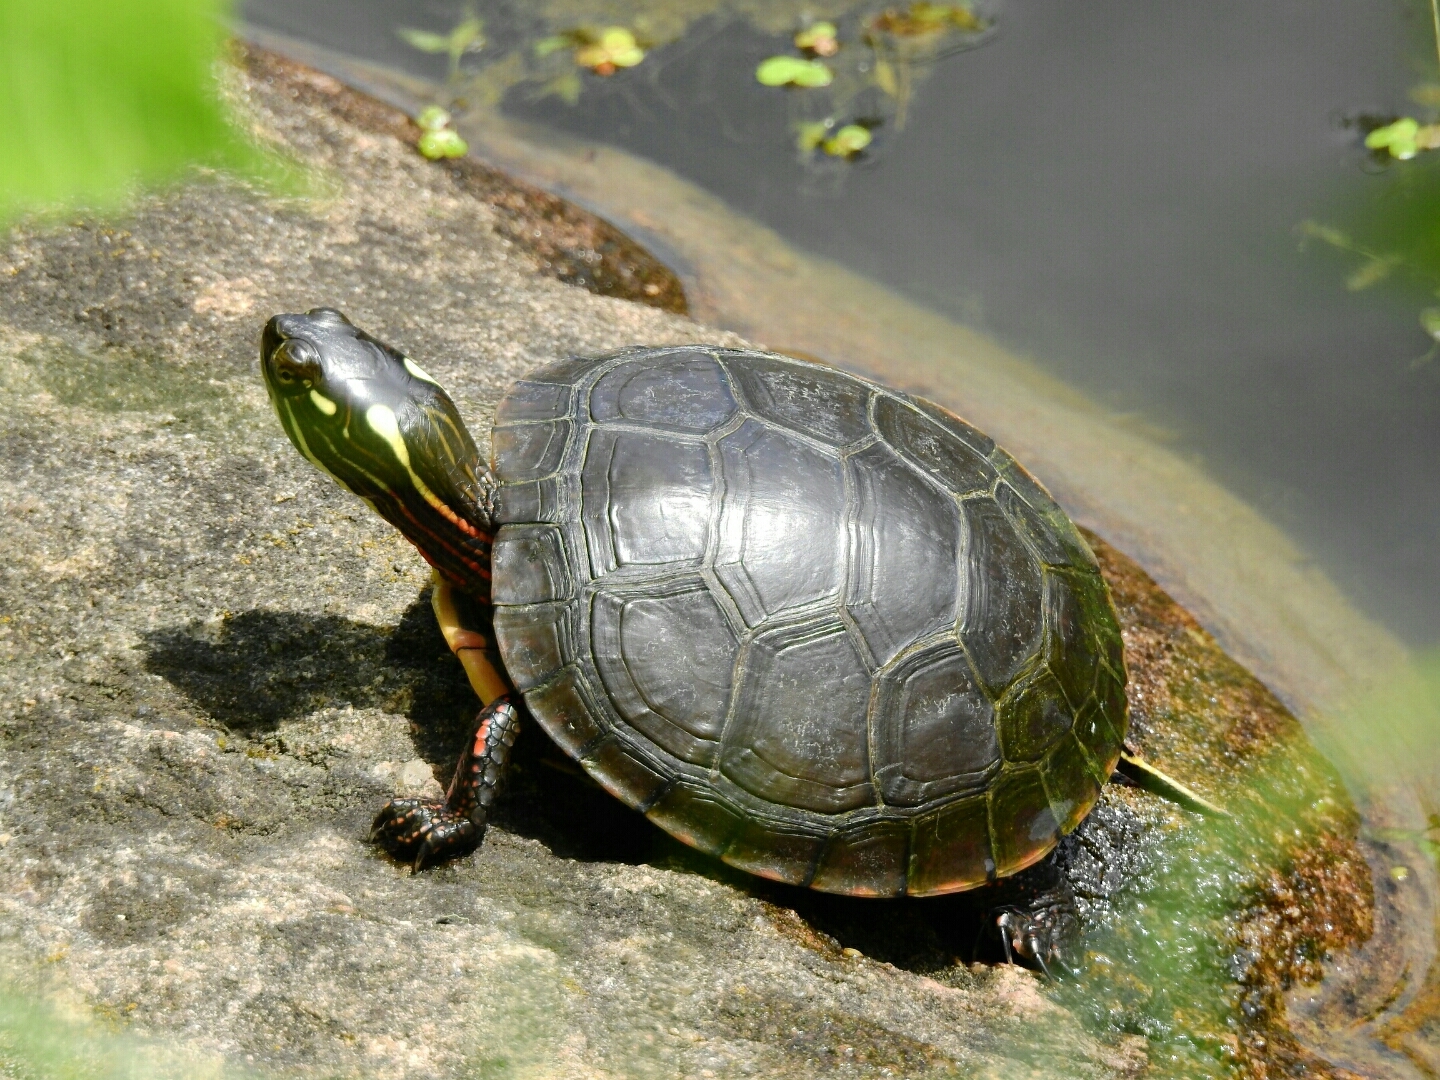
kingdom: Animalia
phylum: Chordata
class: Testudines
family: Emydidae
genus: Chrysemys
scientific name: Chrysemys picta
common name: Painted turtle
